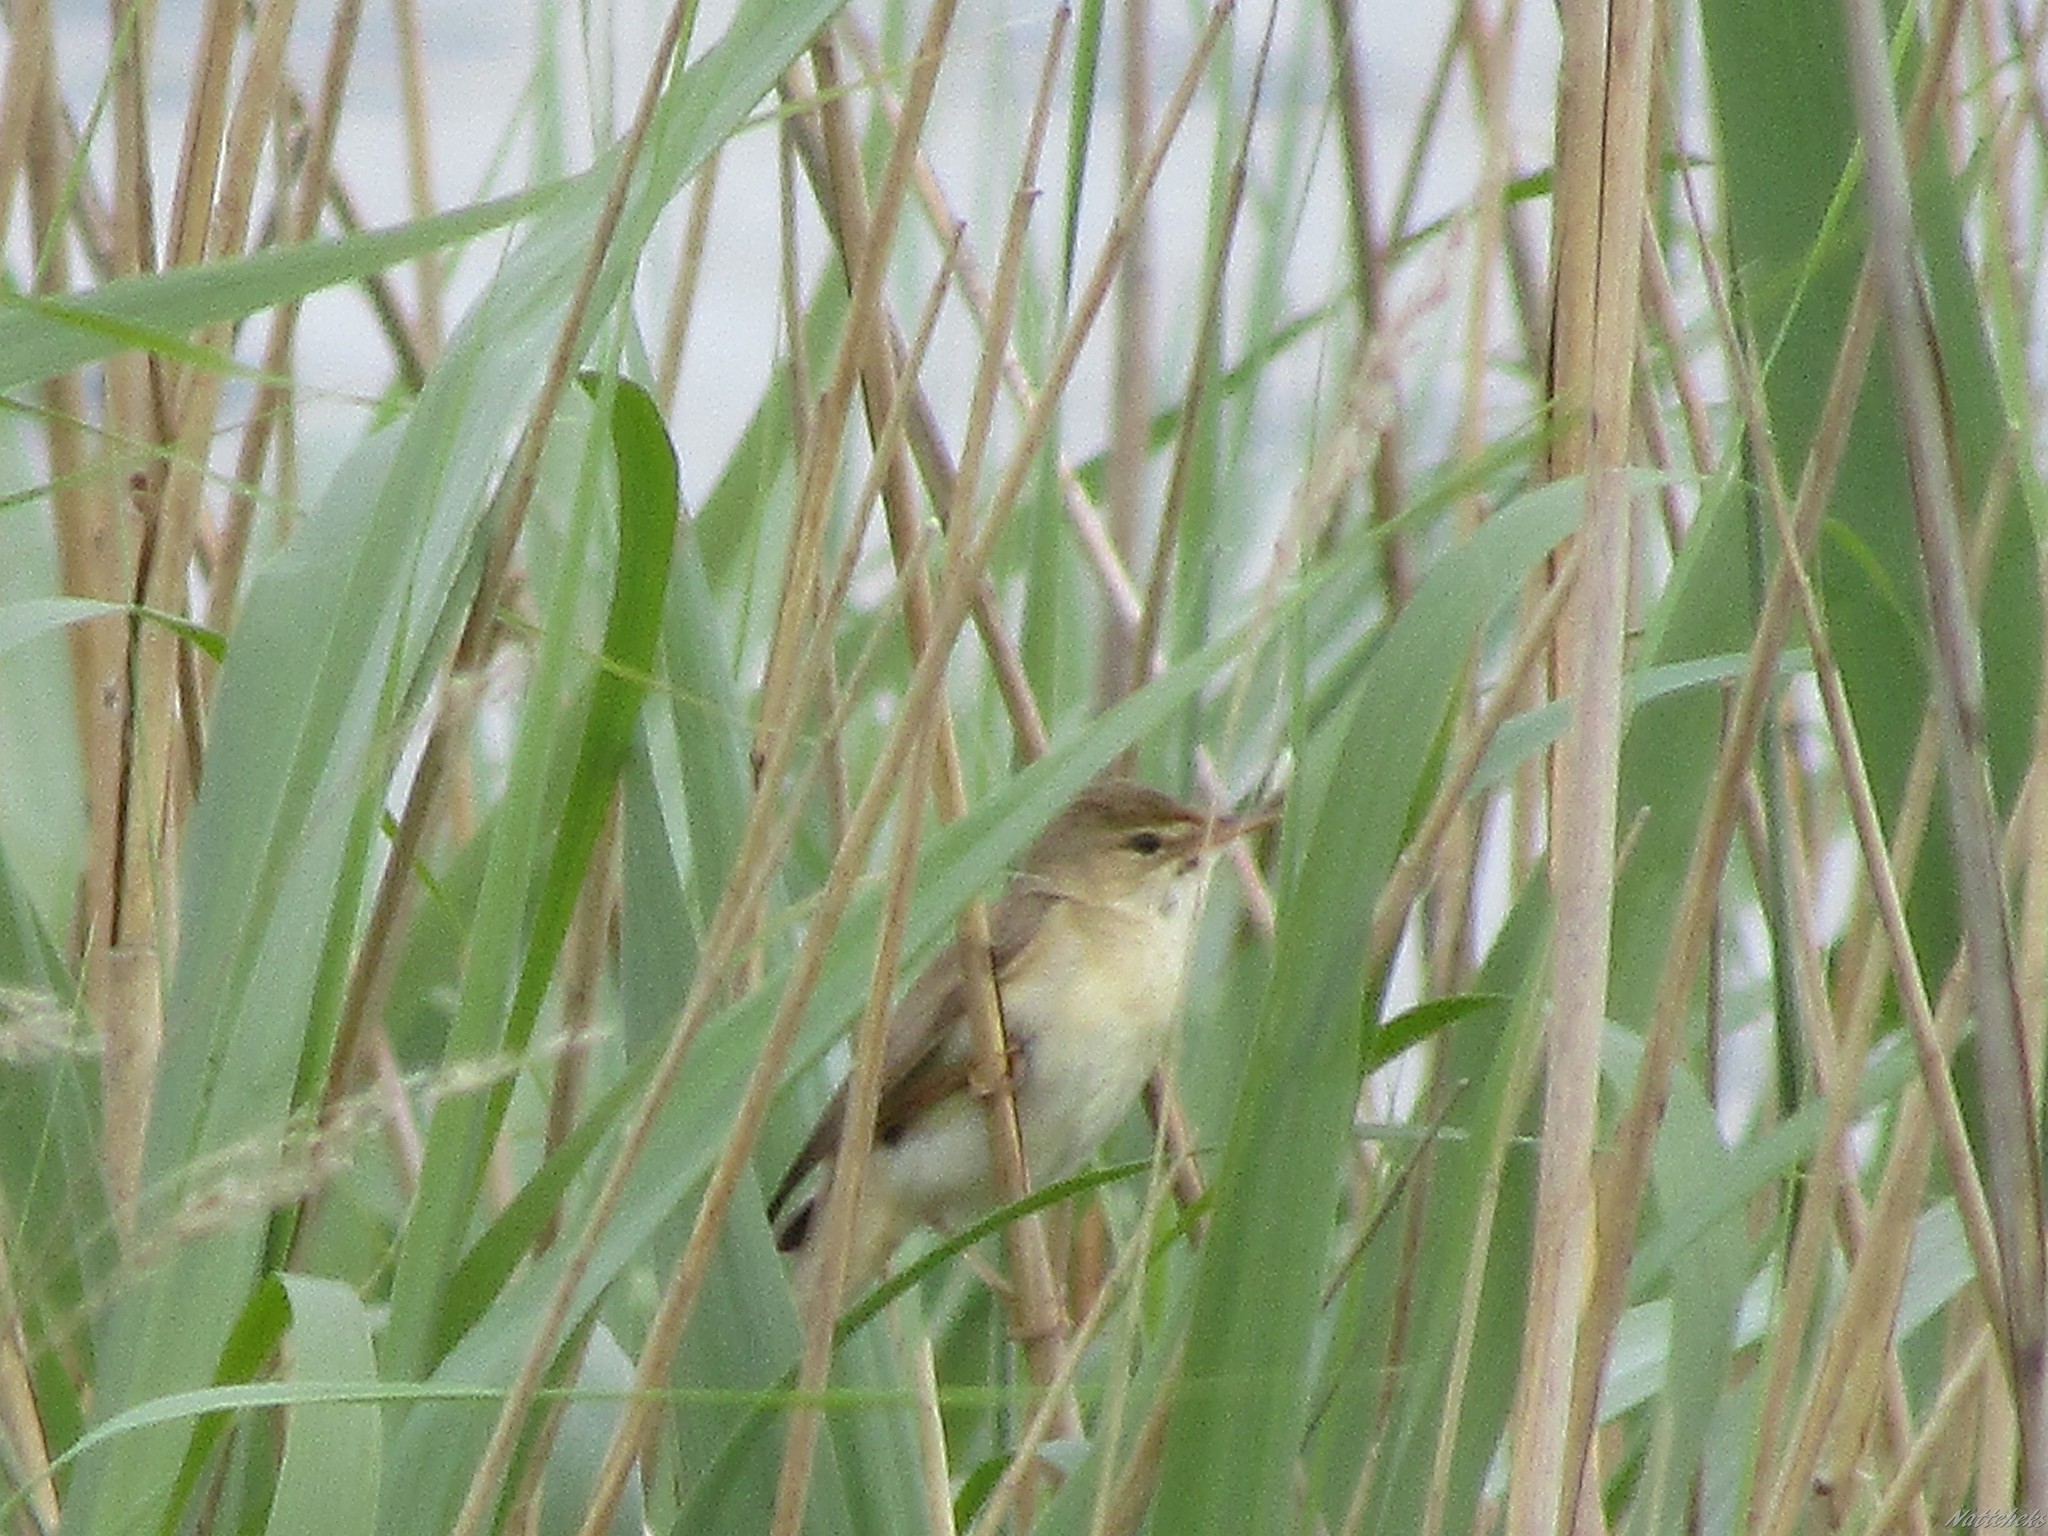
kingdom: Animalia
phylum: Chordata
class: Aves
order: Passeriformes
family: Acrocephalidae
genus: Acrocephalus
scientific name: Acrocephalus scirpaceus
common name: Eurasian reed warbler
